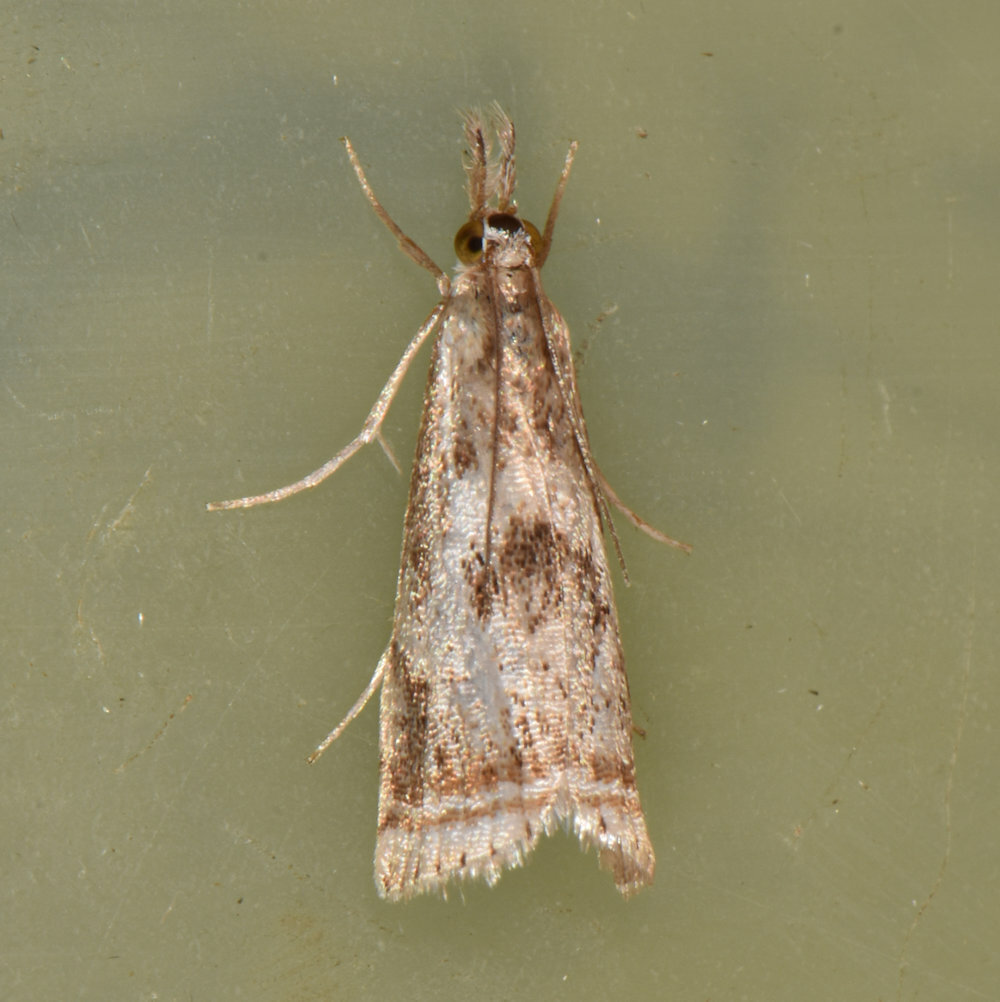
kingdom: Animalia
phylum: Arthropoda
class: Insecta
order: Lepidoptera
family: Crambidae
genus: Microcrambus
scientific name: Microcrambus elegans
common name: Elegant grass-veneer
